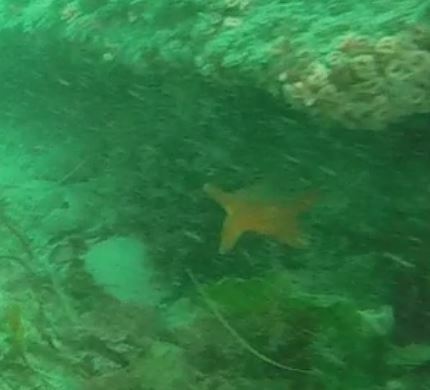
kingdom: Animalia
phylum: Echinodermata
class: Asteroidea
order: Valvatida
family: Asterinidae
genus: Patiria
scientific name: Patiria miniata
